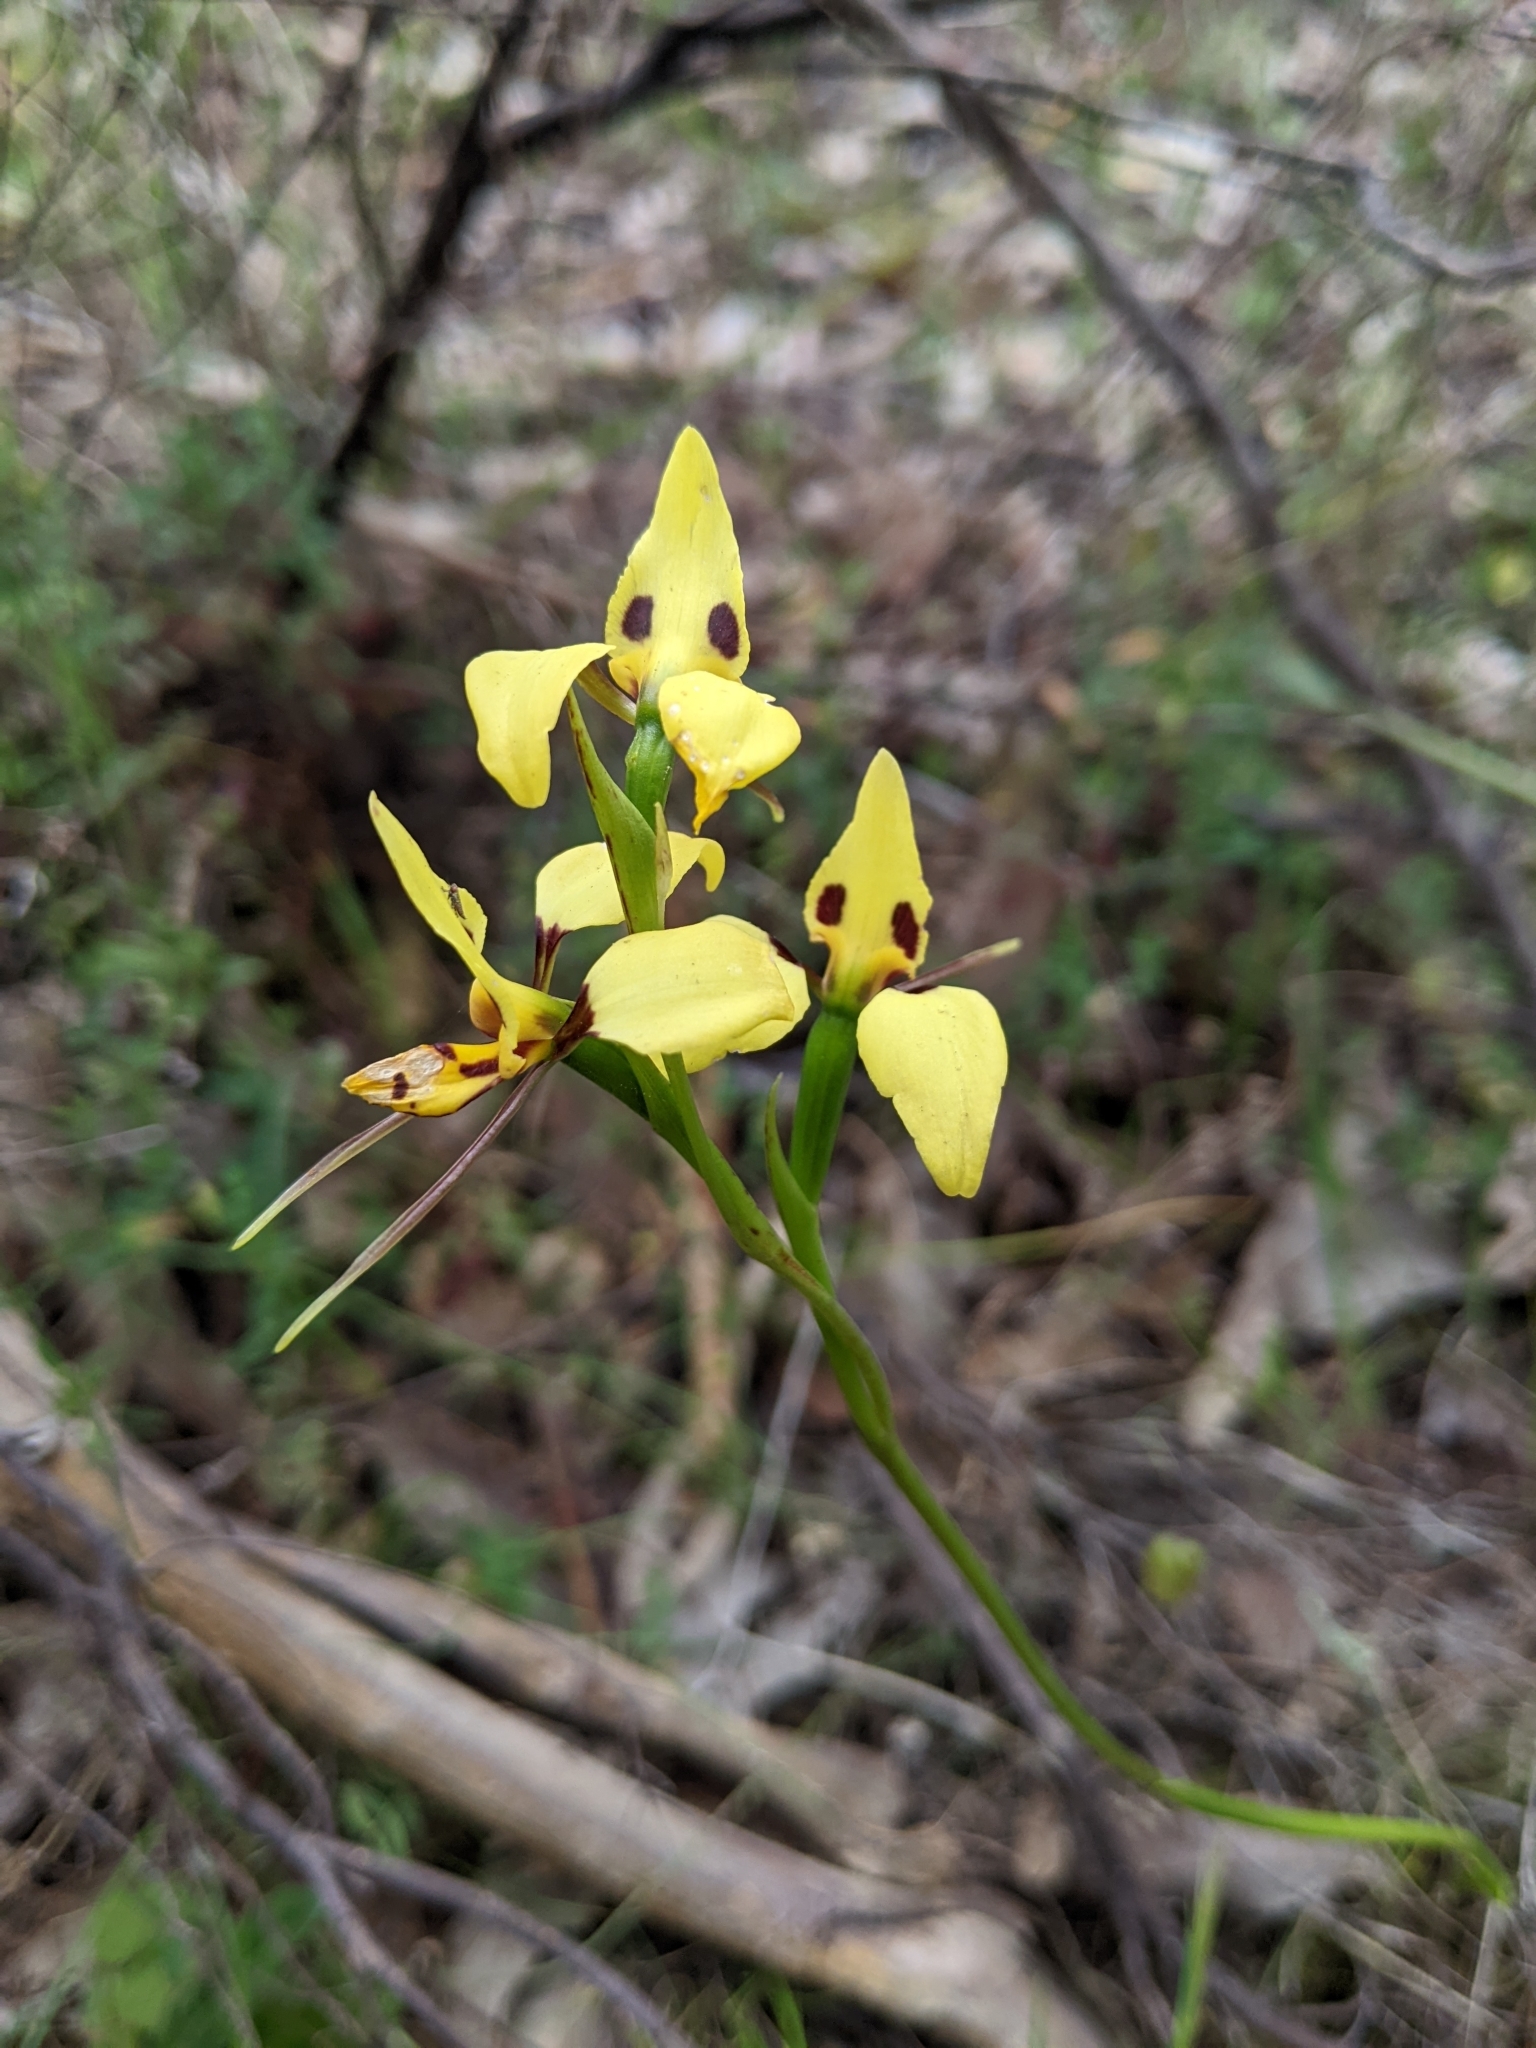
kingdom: Plantae
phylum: Tracheophyta
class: Liliopsida
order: Asparagales
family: Orchidaceae
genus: Diuris
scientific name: Diuris sulphurea
